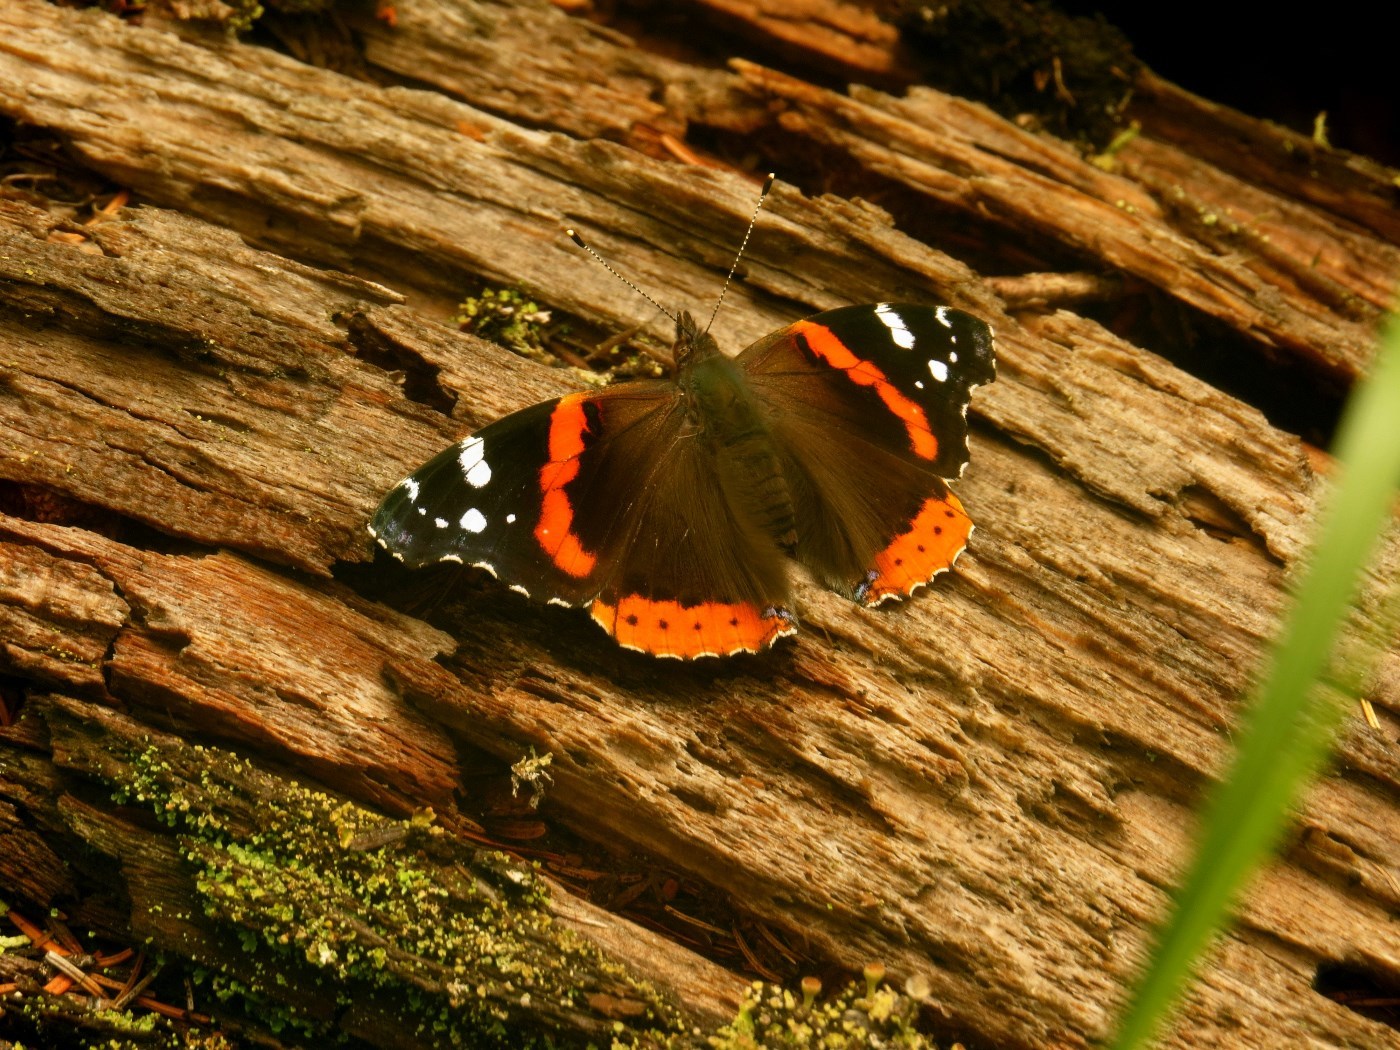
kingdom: Animalia
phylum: Arthropoda
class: Insecta
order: Lepidoptera
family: Nymphalidae
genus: Vanessa
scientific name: Vanessa atalanta
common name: Red admiral
